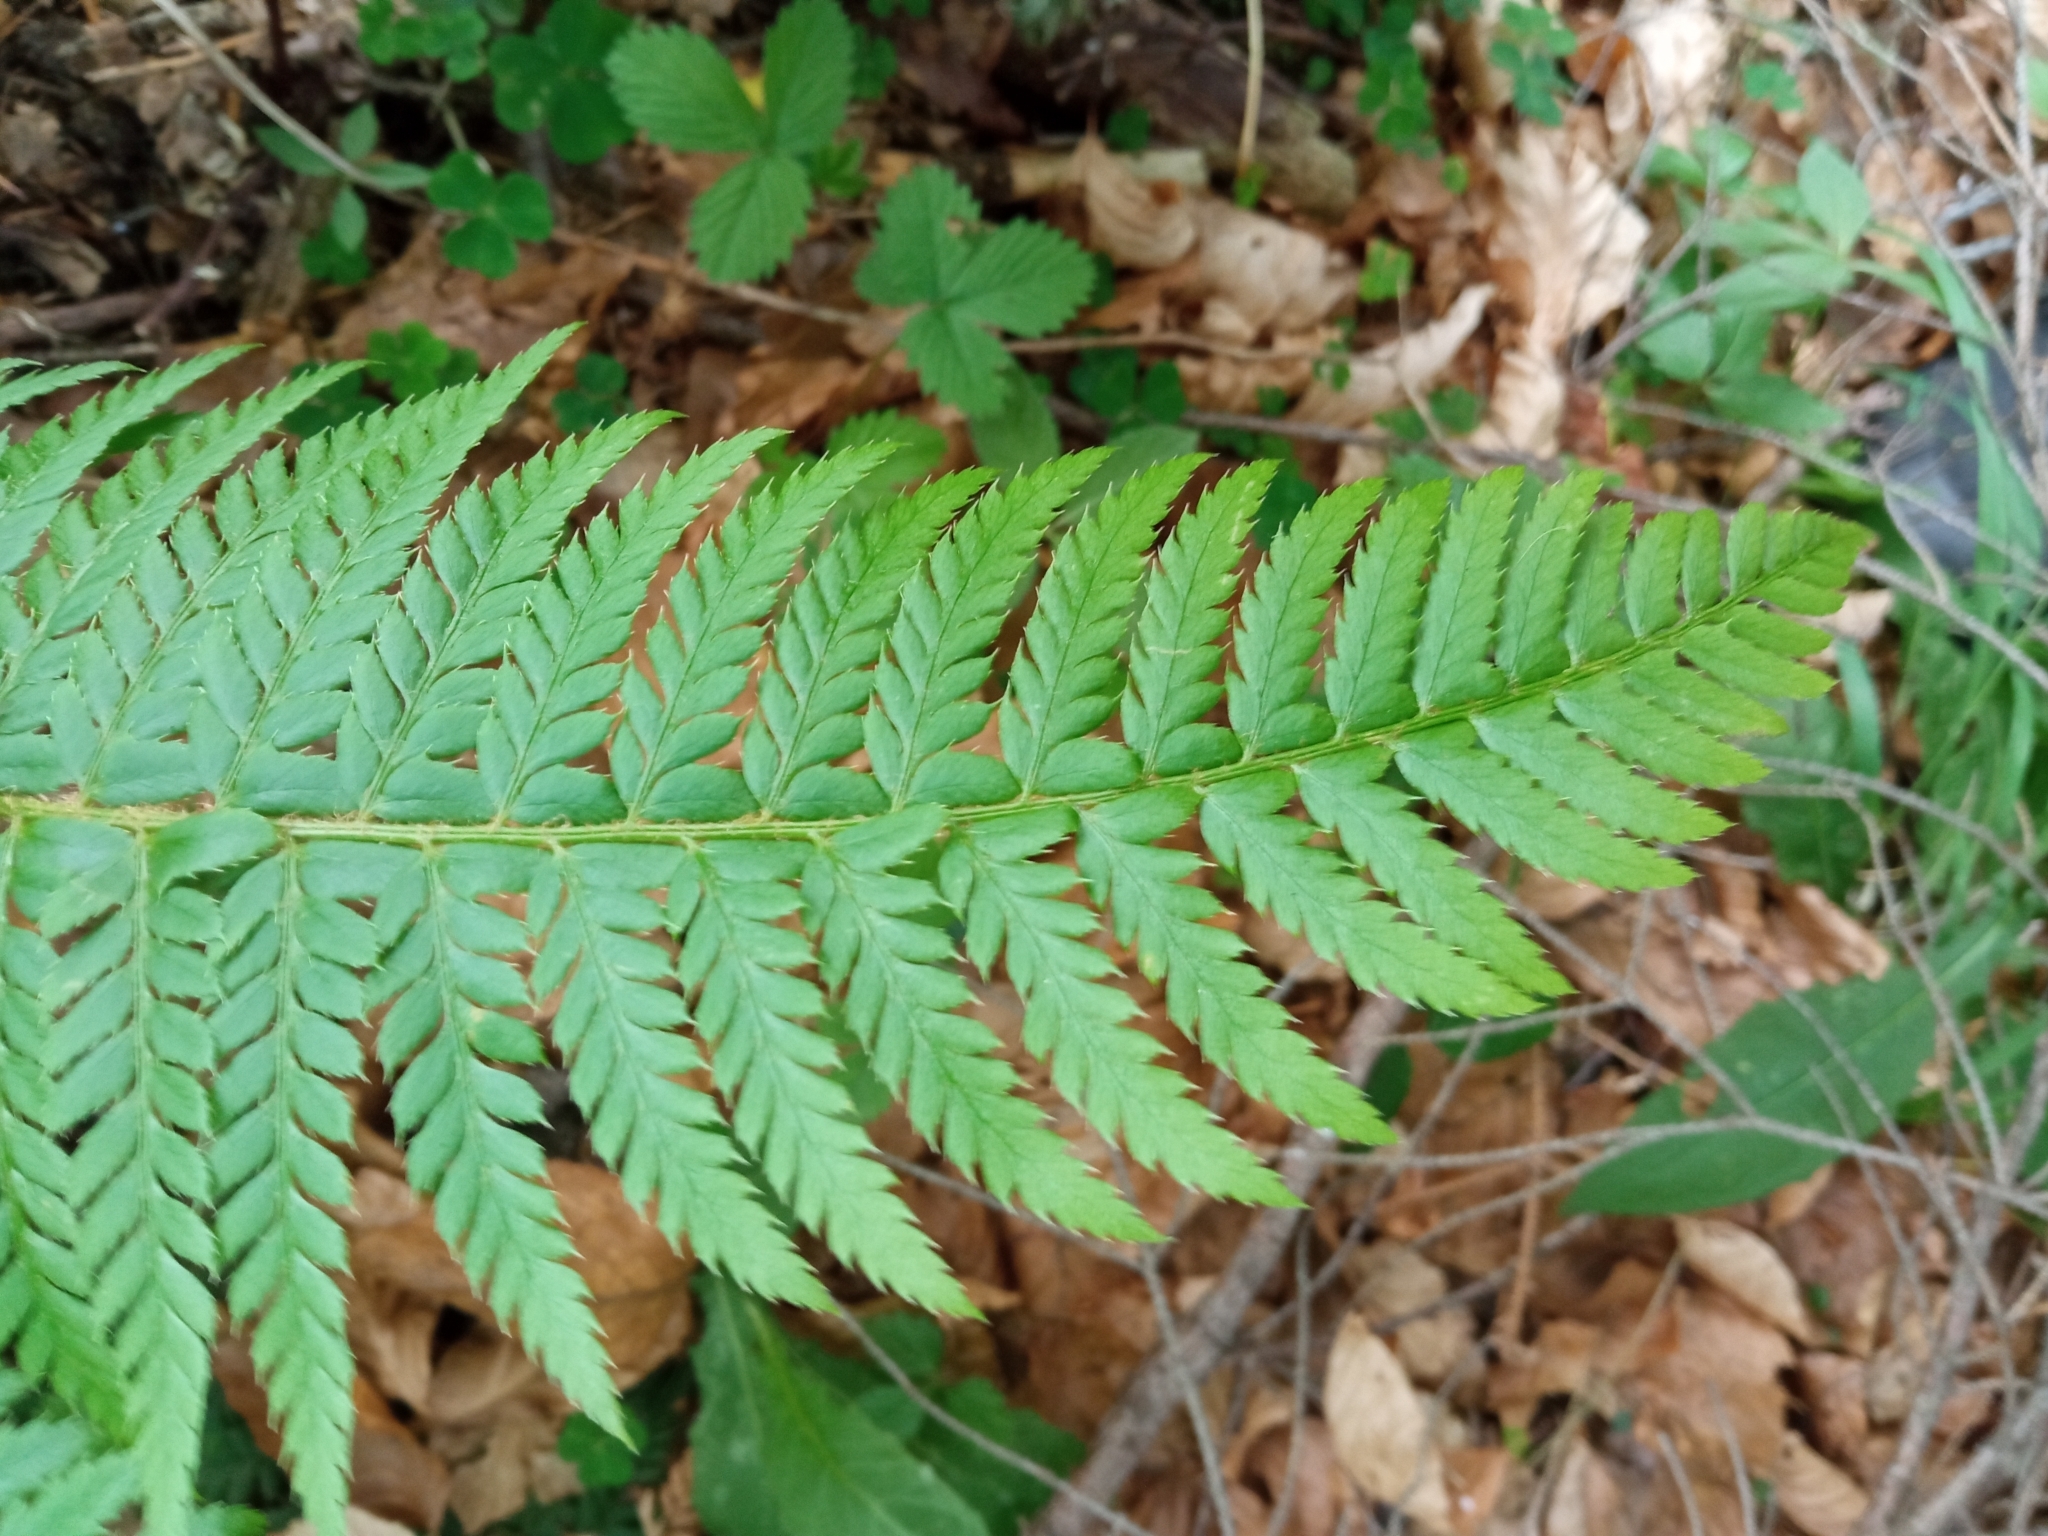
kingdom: Plantae
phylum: Tracheophyta
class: Polypodiopsida
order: Polypodiales
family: Dryopteridaceae
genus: Polystichum
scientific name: Polystichum aculeatum
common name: Hard shield-fern
